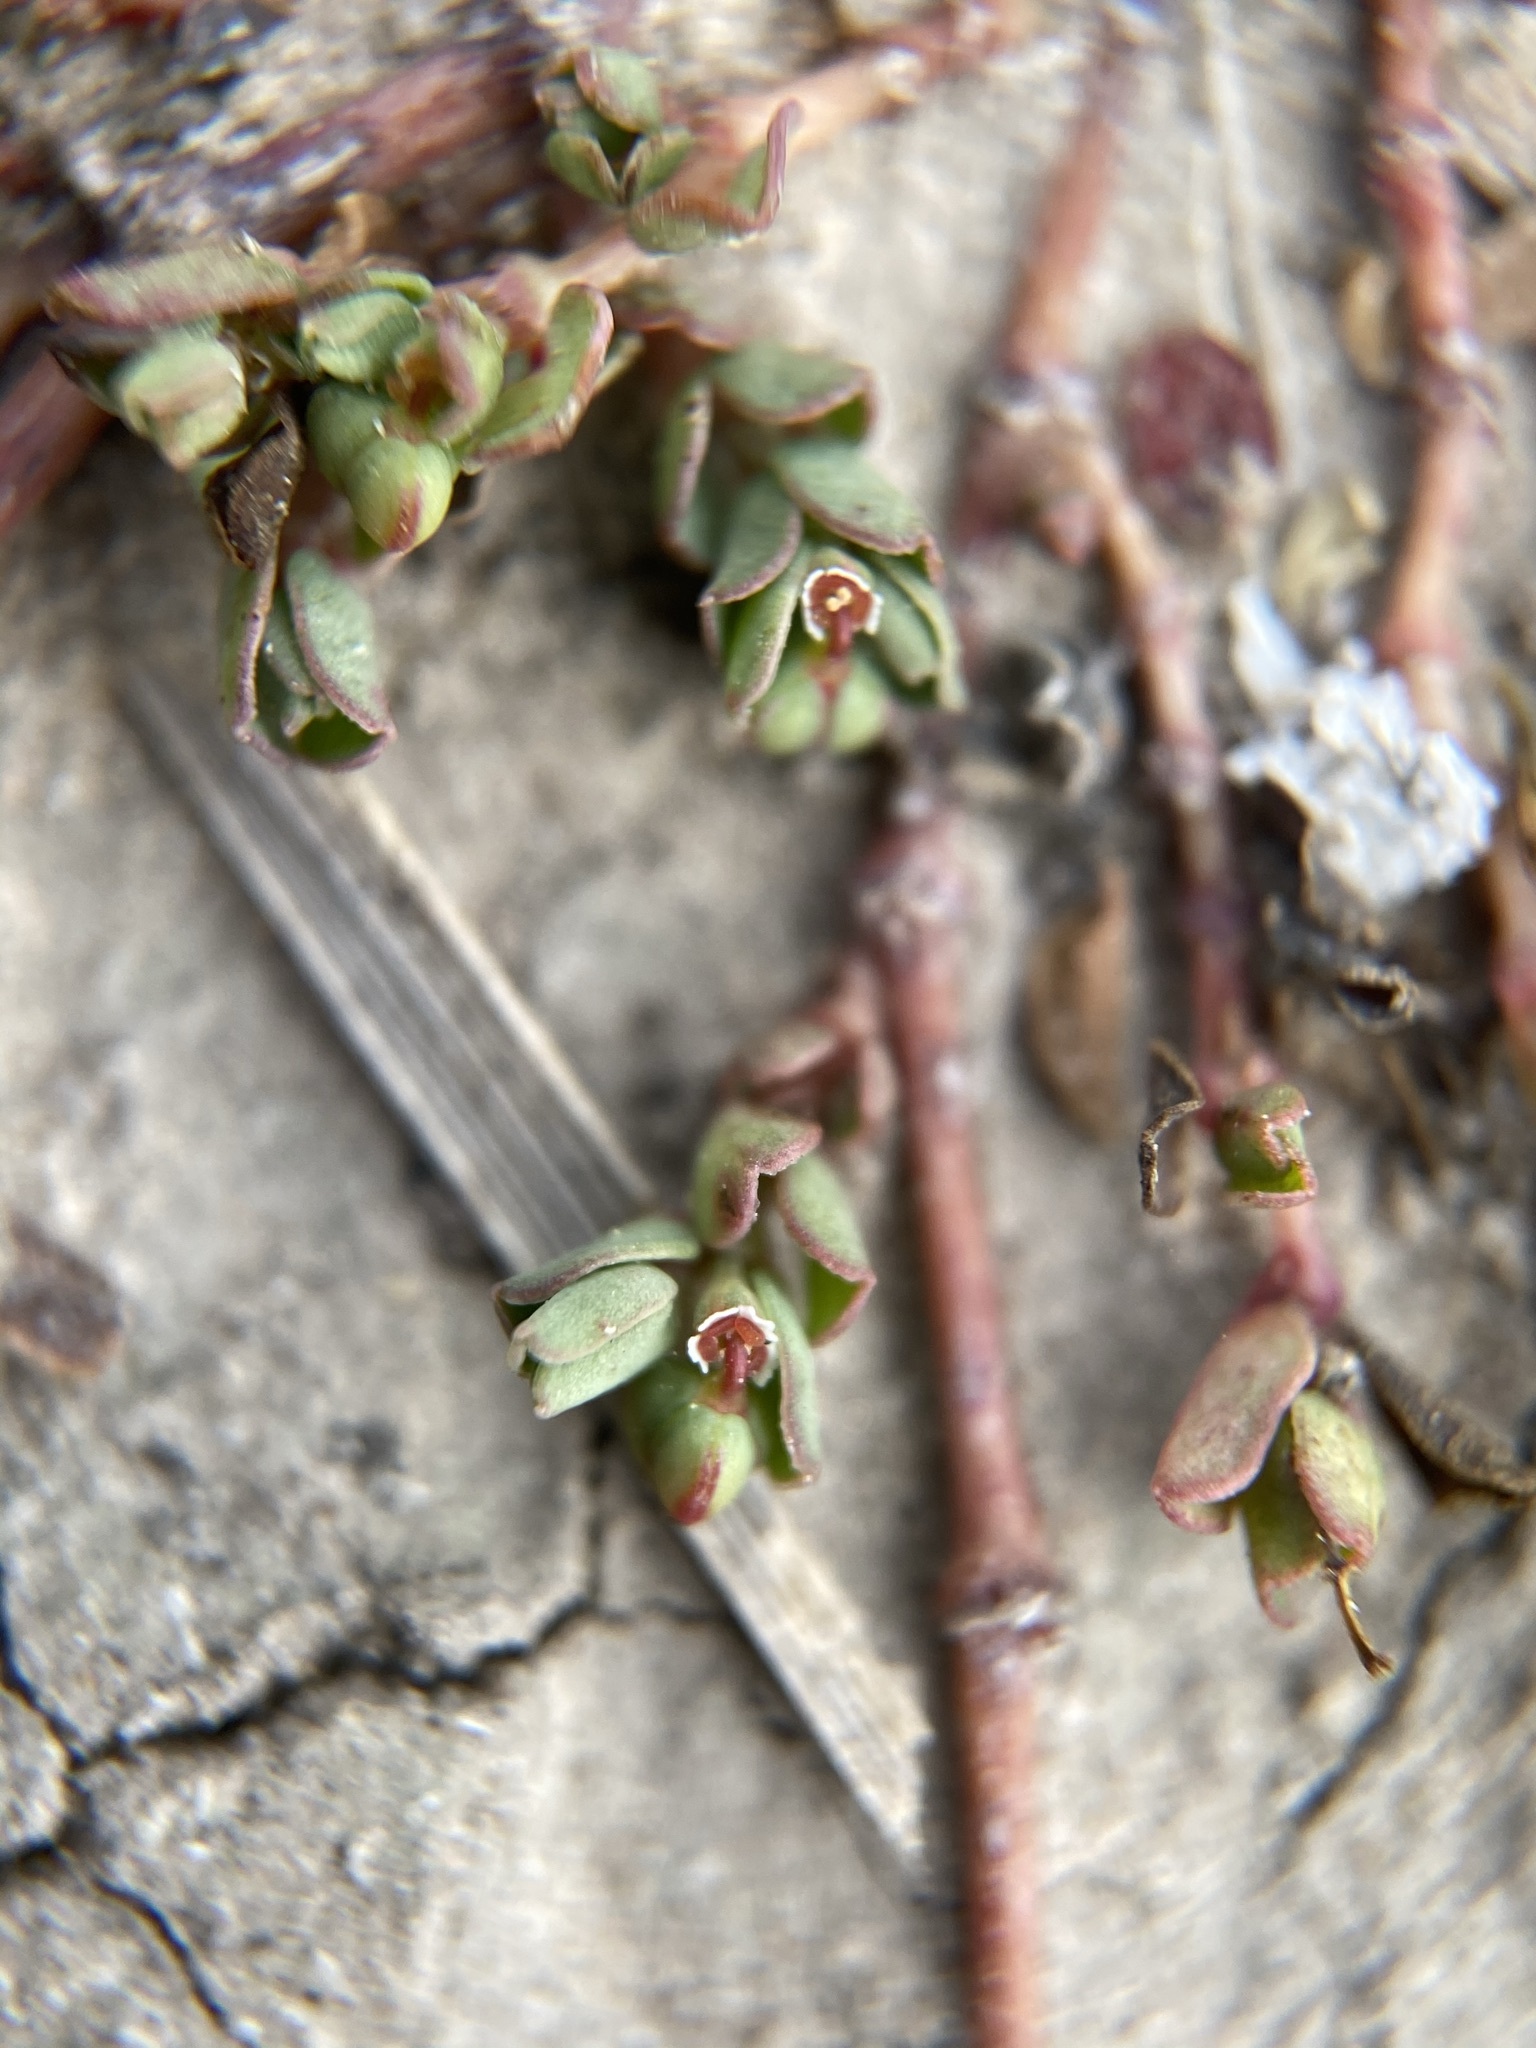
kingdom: Plantae
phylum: Tracheophyta
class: Magnoliopsida
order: Malpighiales
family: Euphorbiaceae
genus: Euphorbia
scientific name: Euphorbia serpens
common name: Matted sandmat
